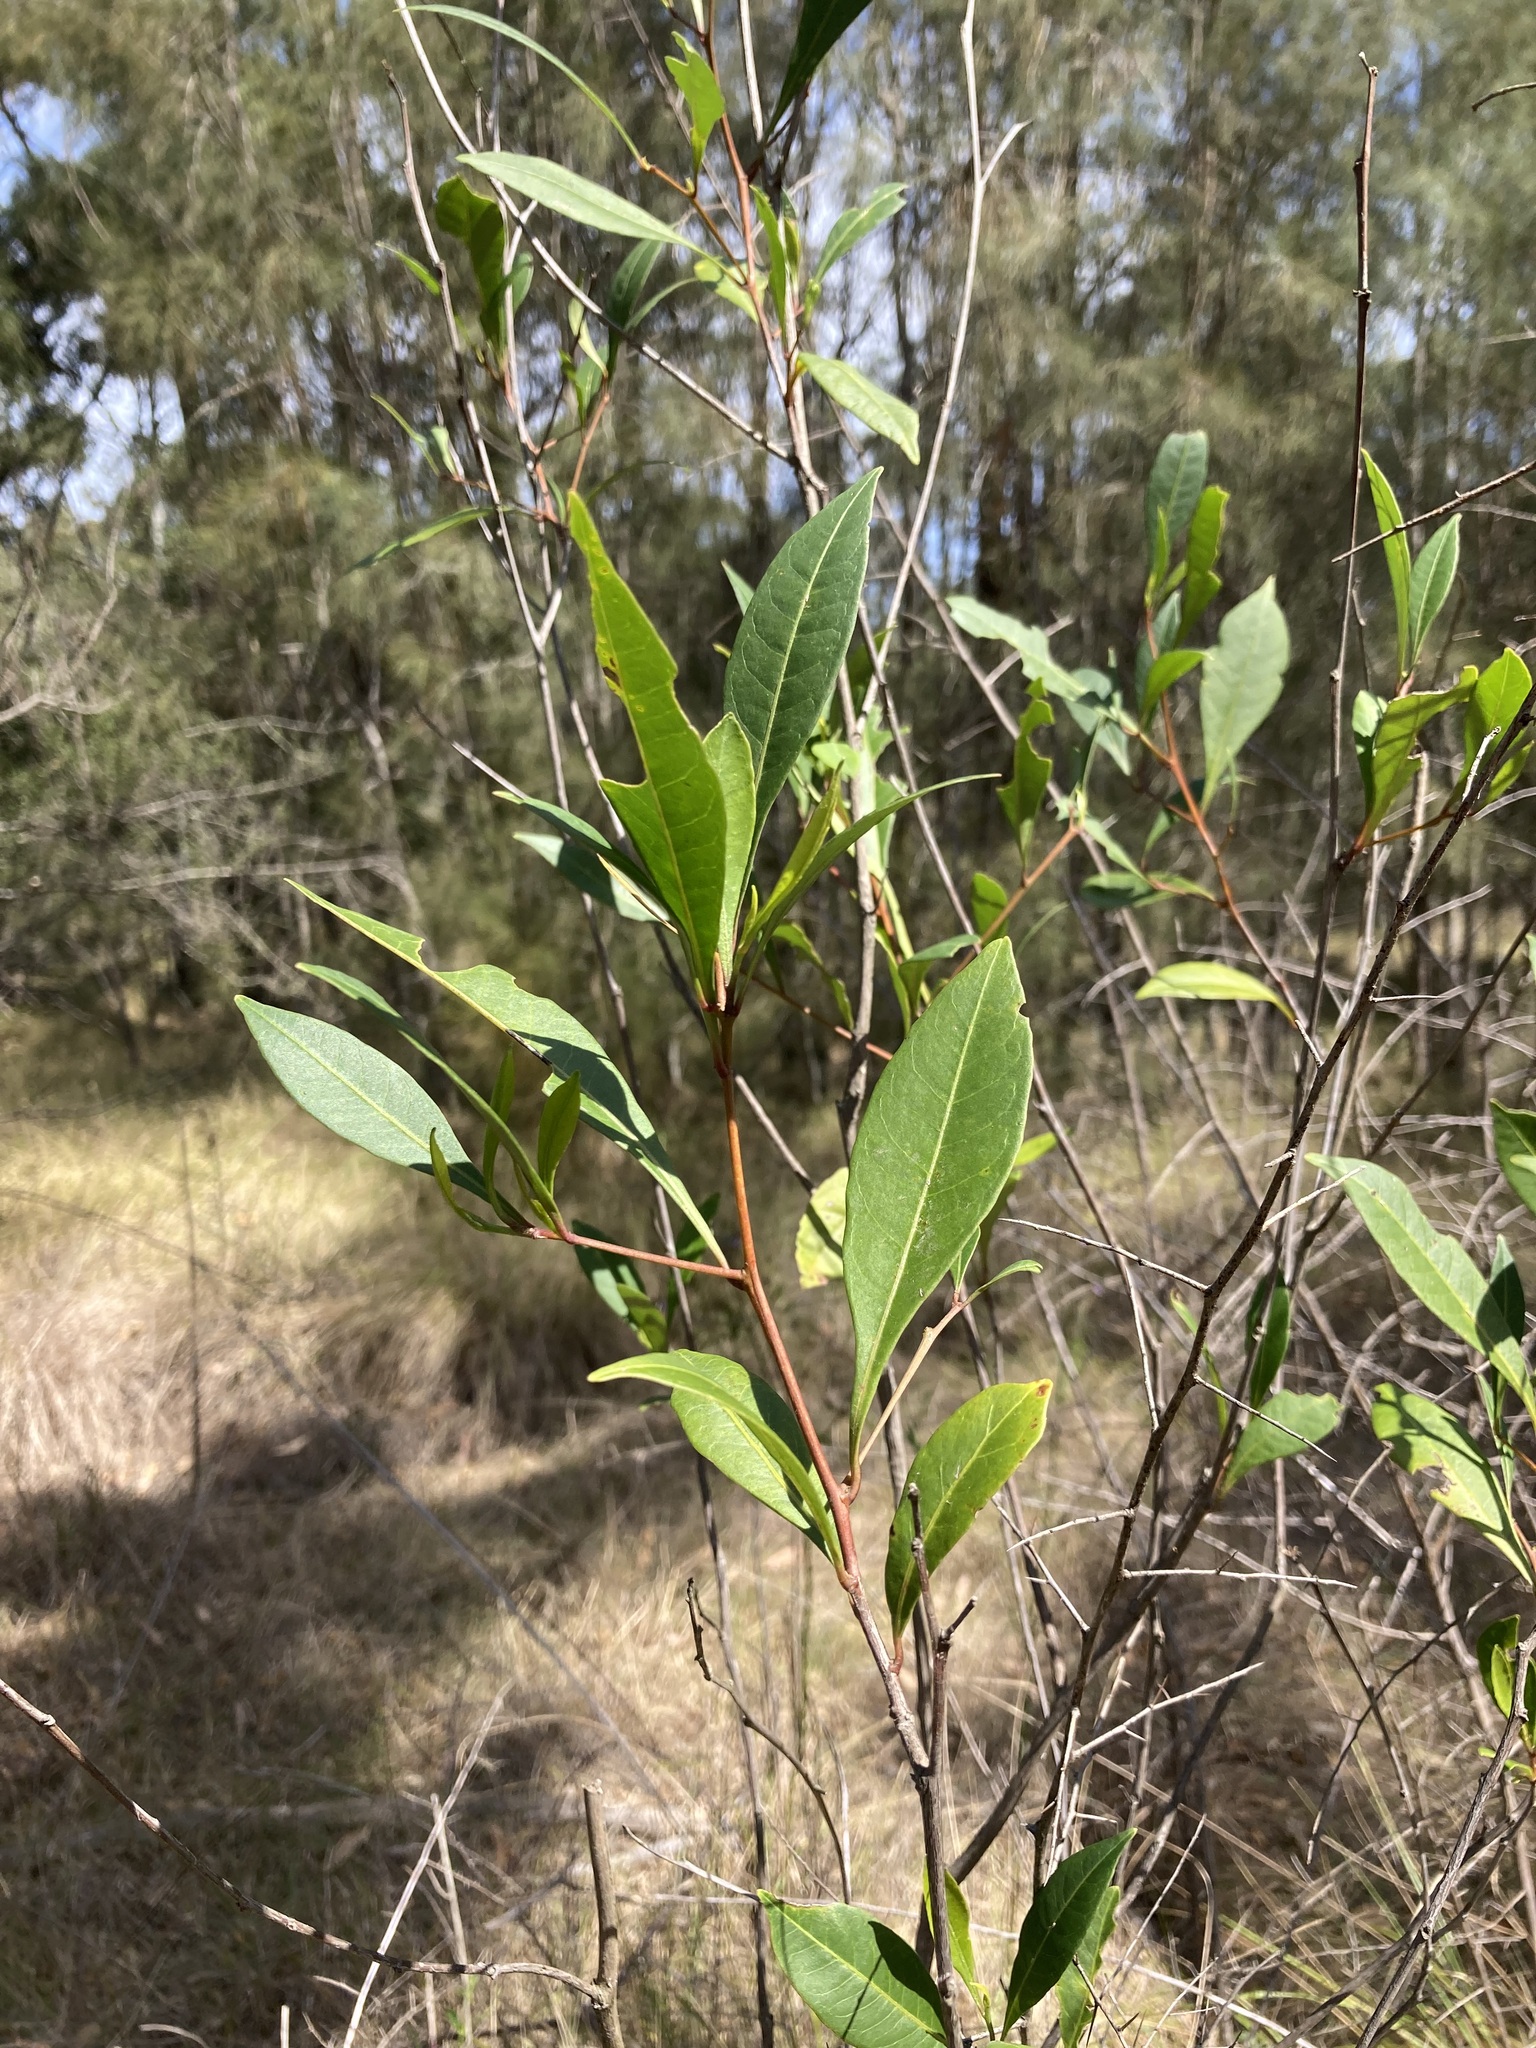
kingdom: Plantae
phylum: Tracheophyta
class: Magnoliopsida
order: Sapindales
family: Sapindaceae
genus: Dodonaea
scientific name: Dodonaea triquetra
